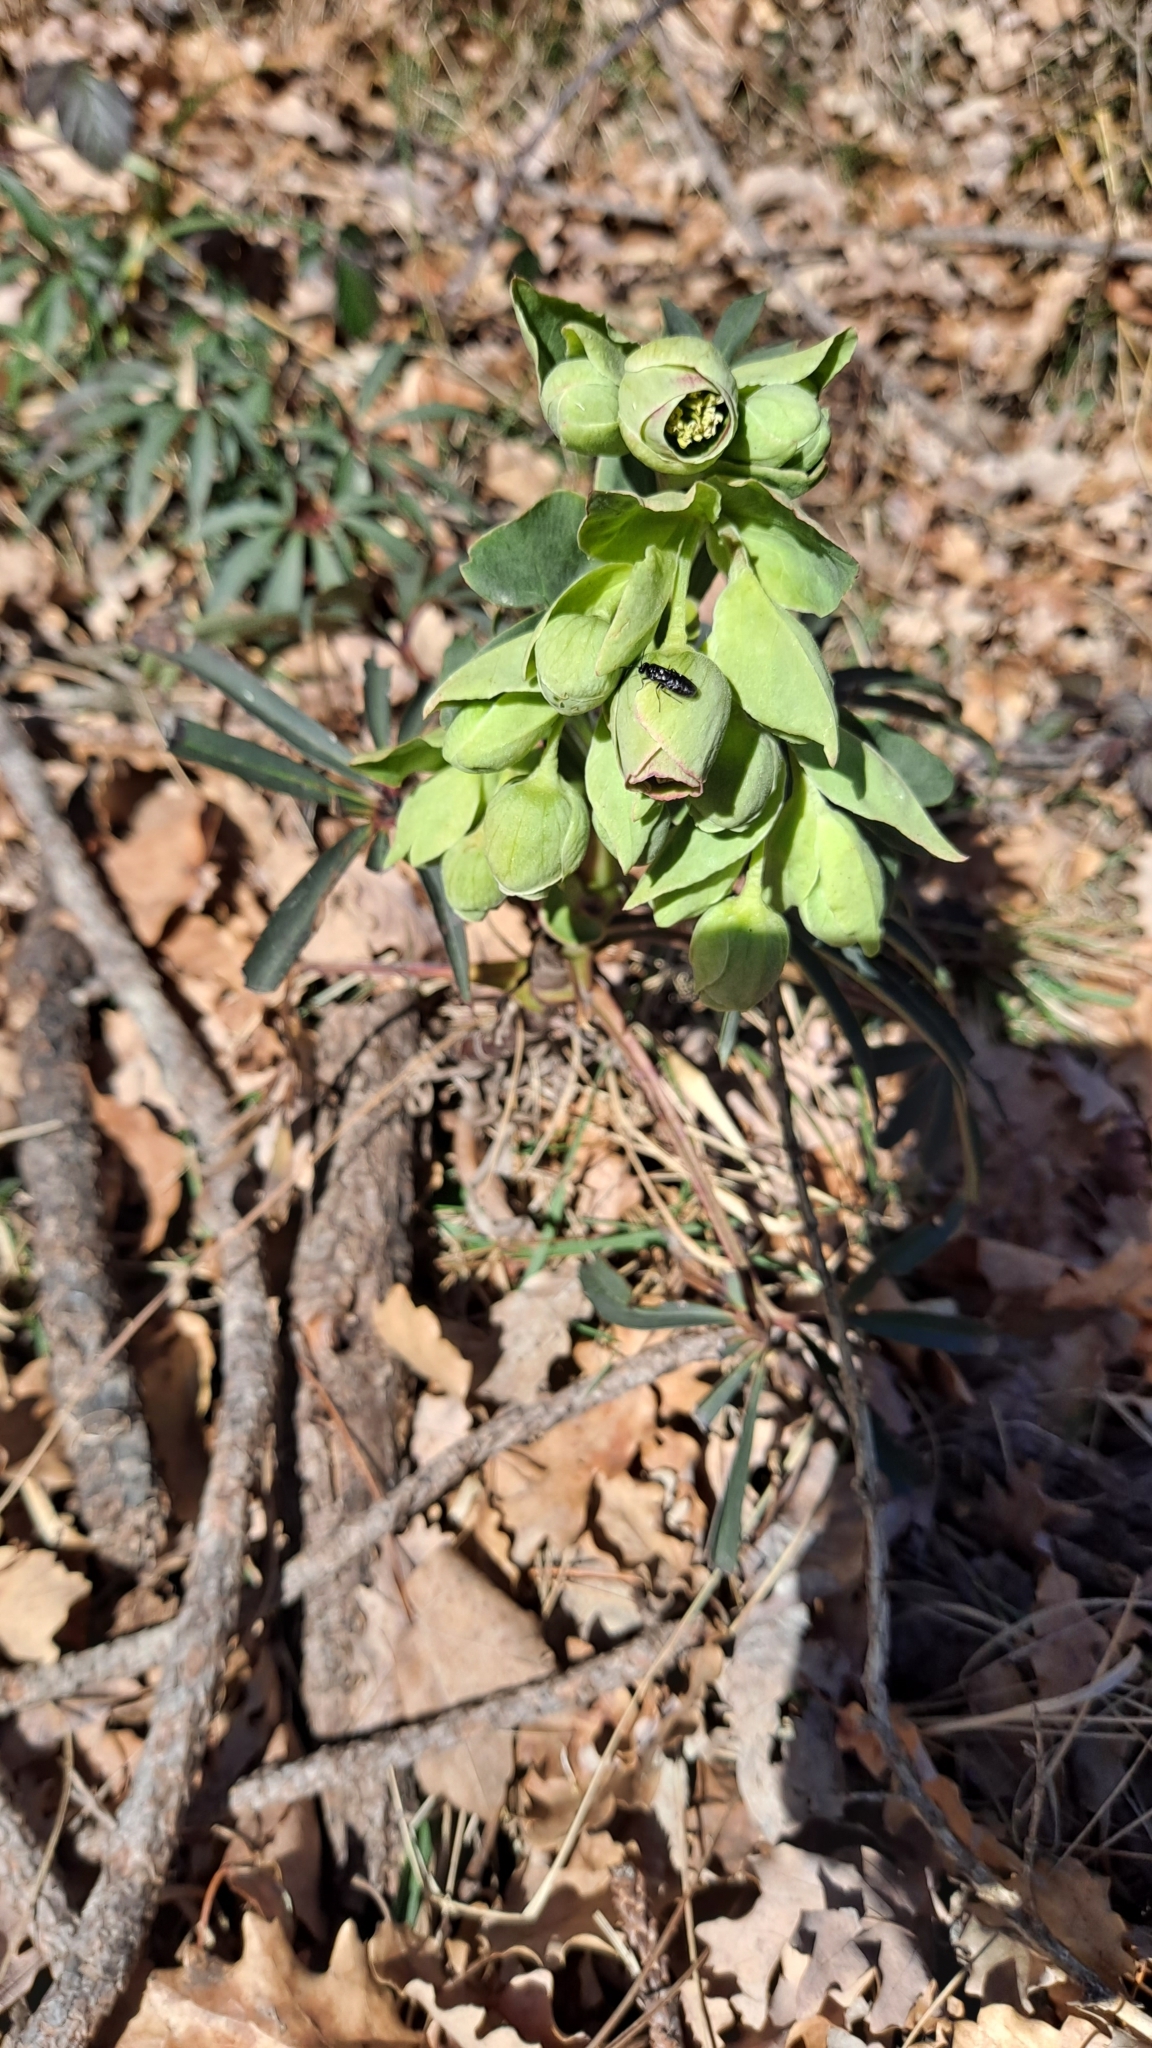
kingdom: Plantae
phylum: Tracheophyta
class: Magnoliopsida
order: Ranunculales
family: Ranunculaceae
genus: Helleborus
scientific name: Helleborus foetidus
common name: Stinking hellebore
